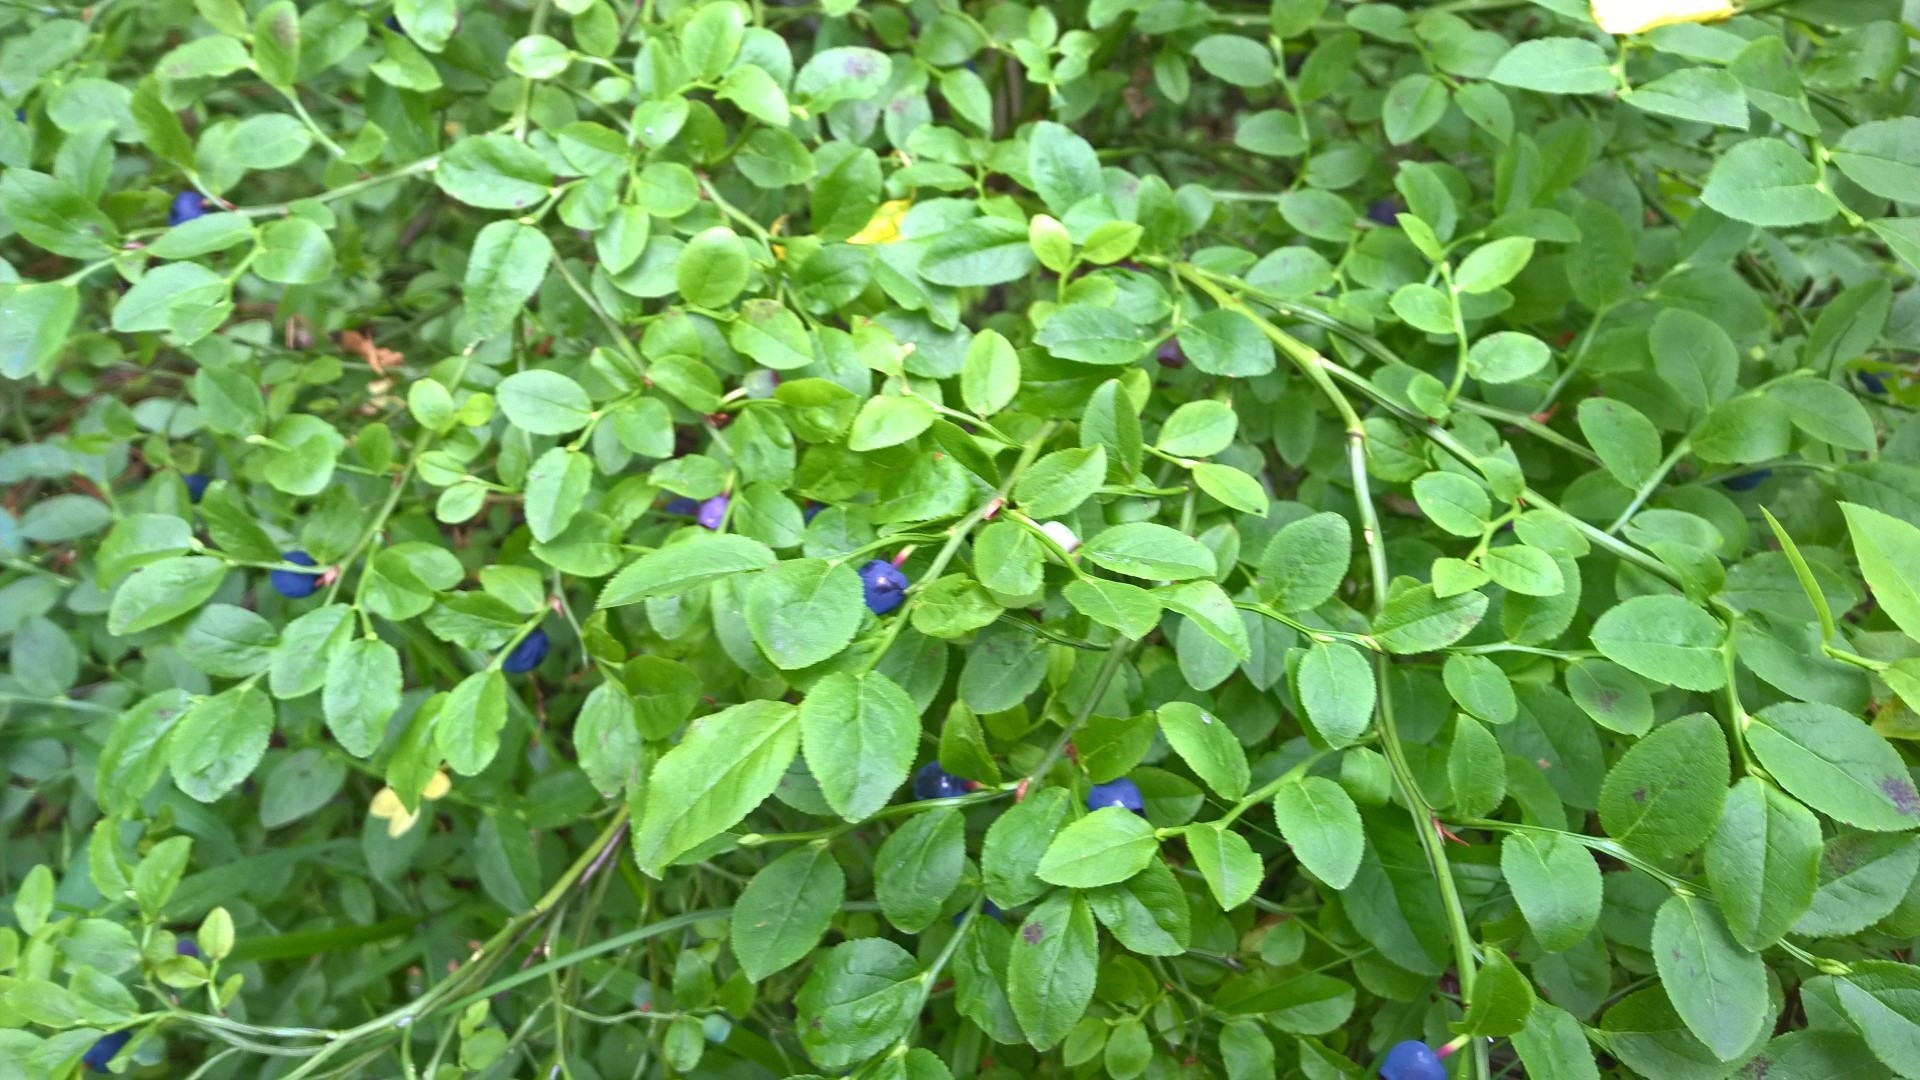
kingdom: Plantae
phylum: Tracheophyta
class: Magnoliopsida
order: Ericales
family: Ericaceae
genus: Vaccinium
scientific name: Vaccinium myrtillus
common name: Bilberry
